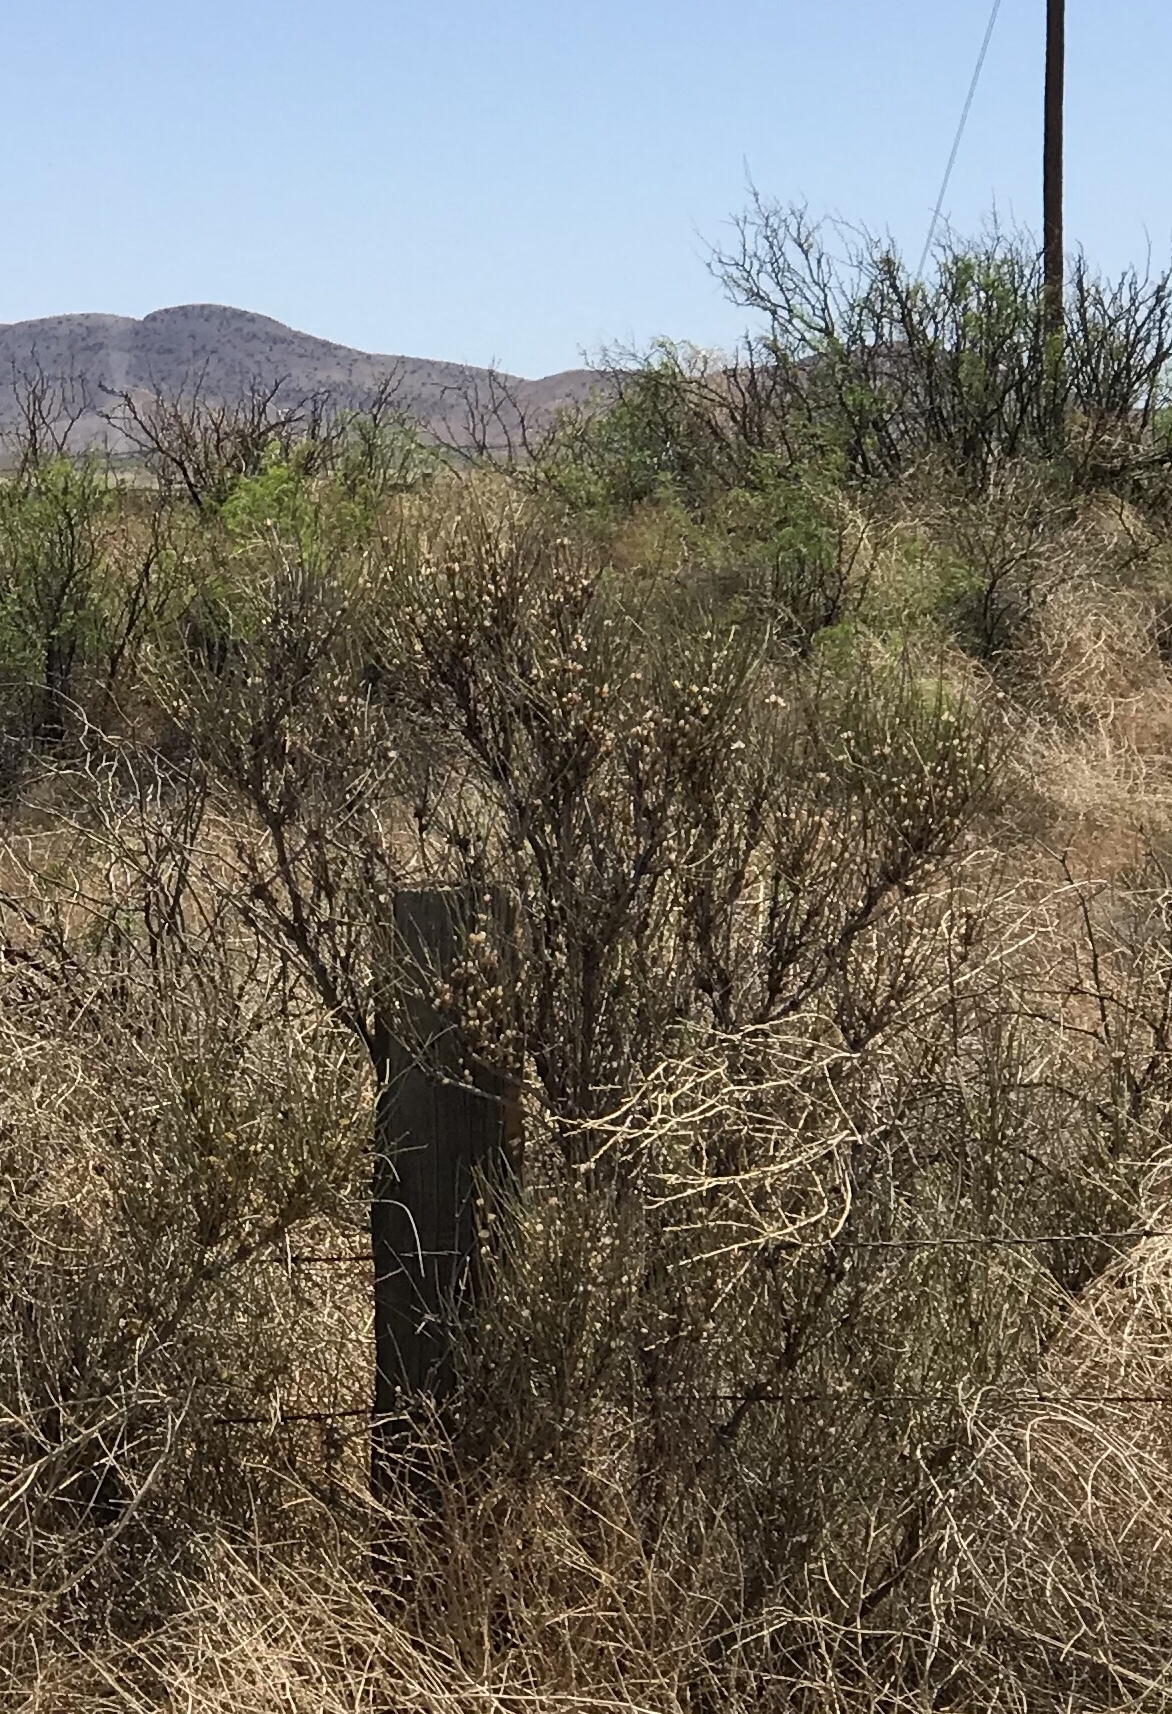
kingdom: Plantae
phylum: Tracheophyta
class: Gnetopsida
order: Ephedrales
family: Ephedraceae
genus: Ephedra
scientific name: Ephedra trifurca
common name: Mexican-tea
